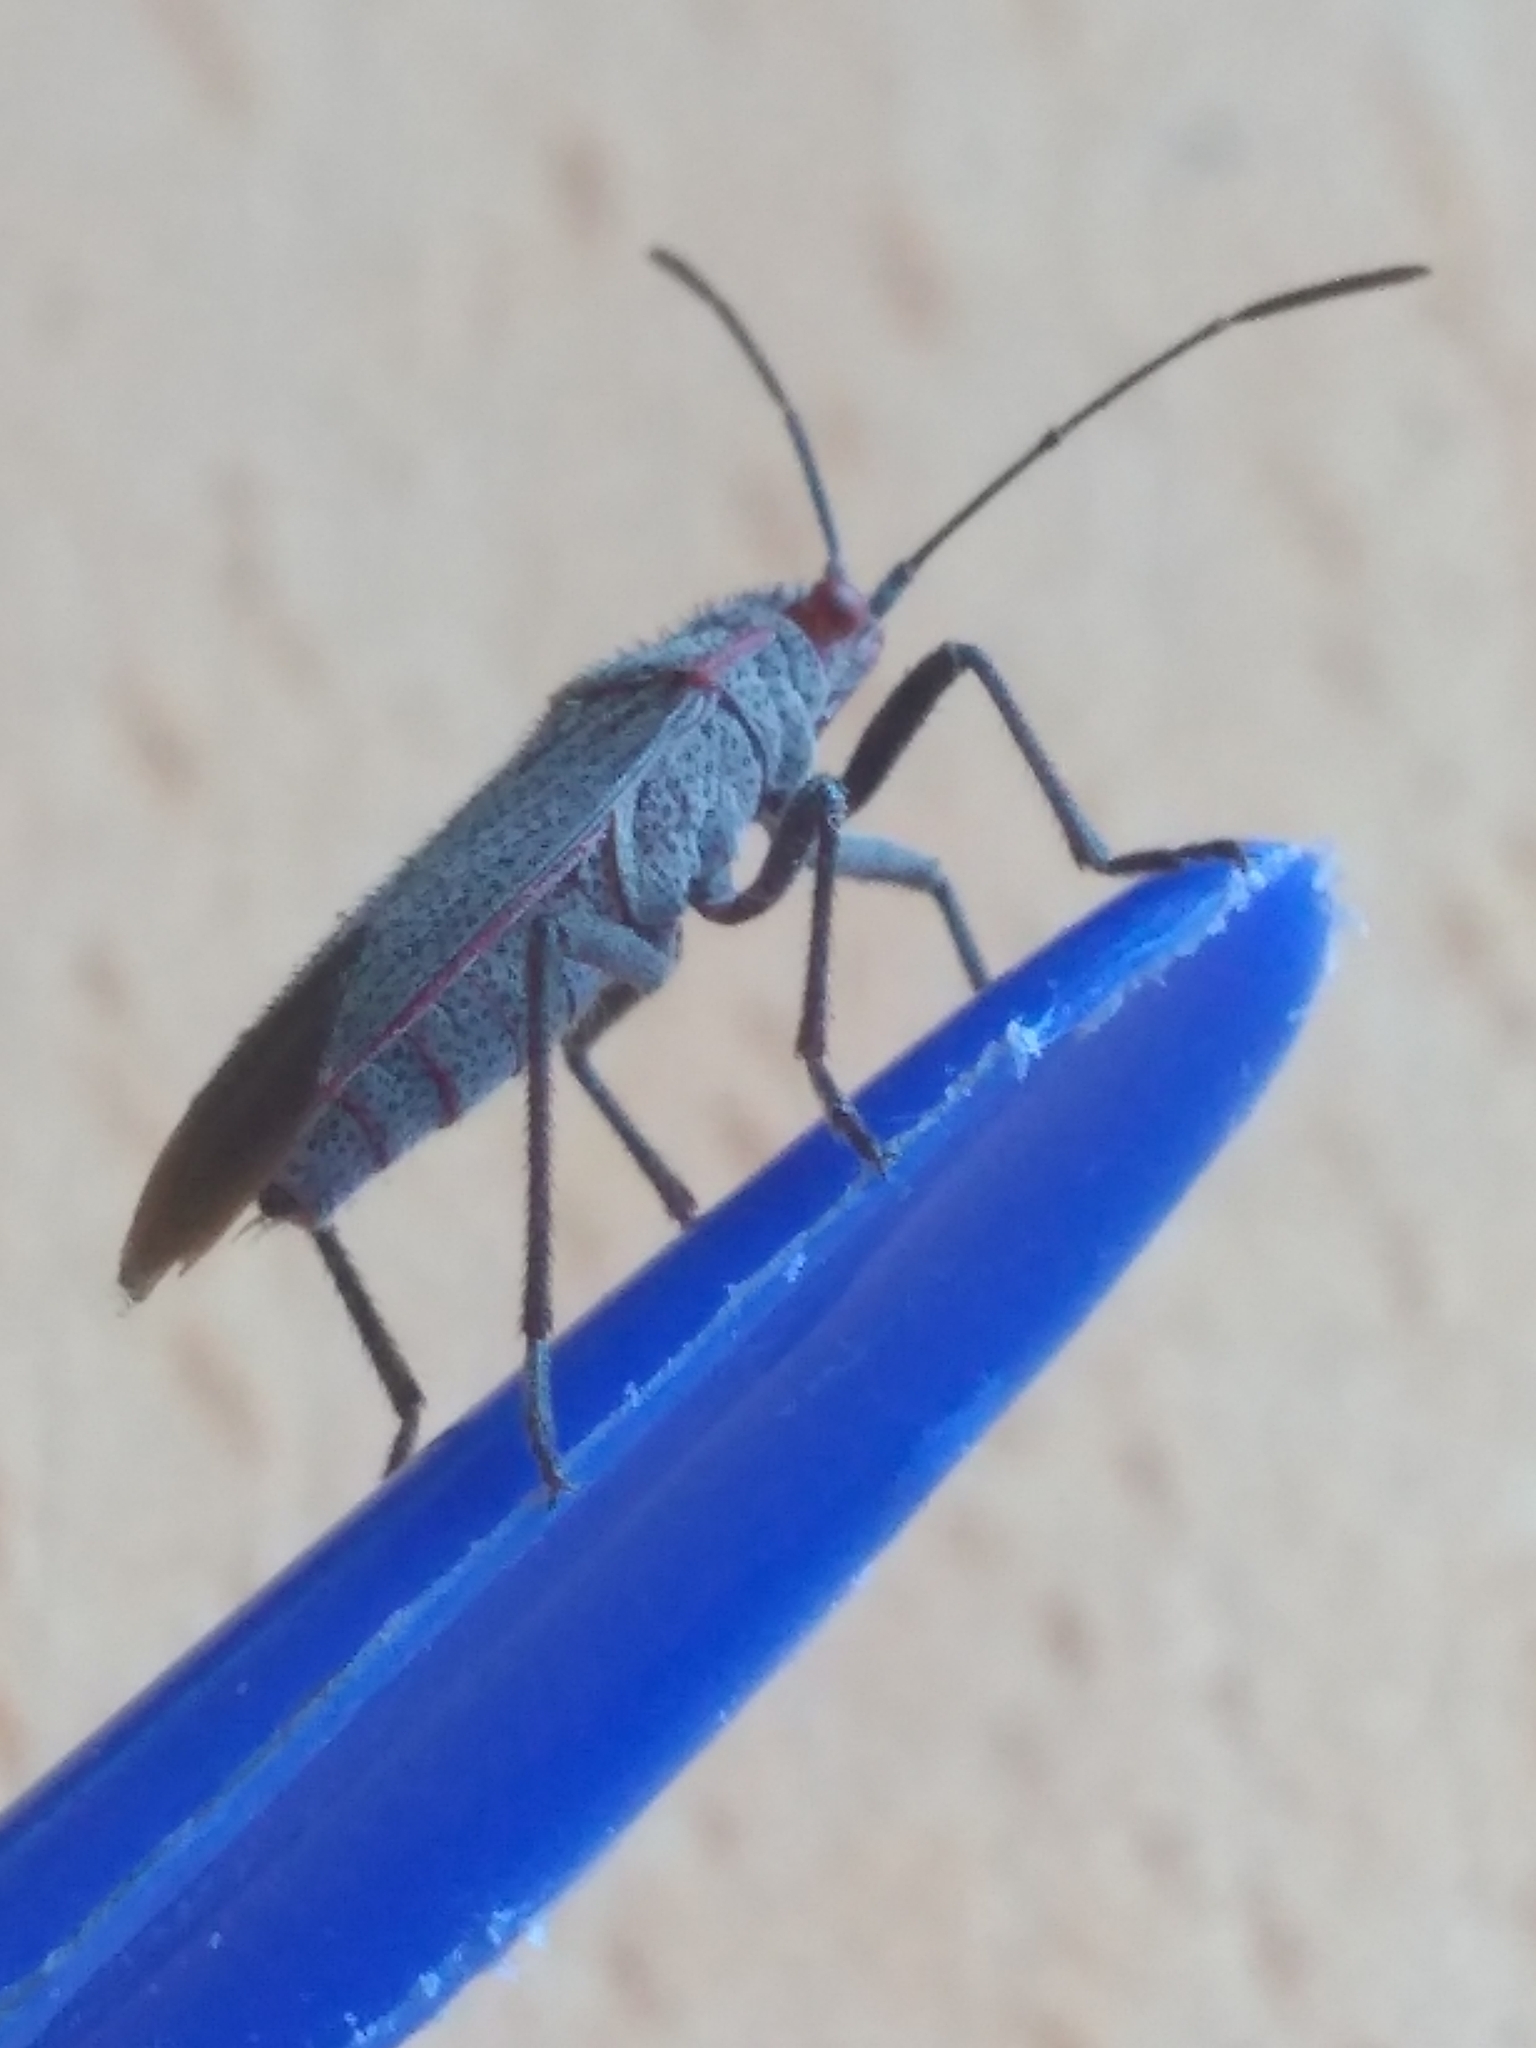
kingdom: Animalia
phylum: Arthropoda
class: Insecta
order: Hemiptera
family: Rhopalidae
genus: Jadera
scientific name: Jadera parapectoralis
